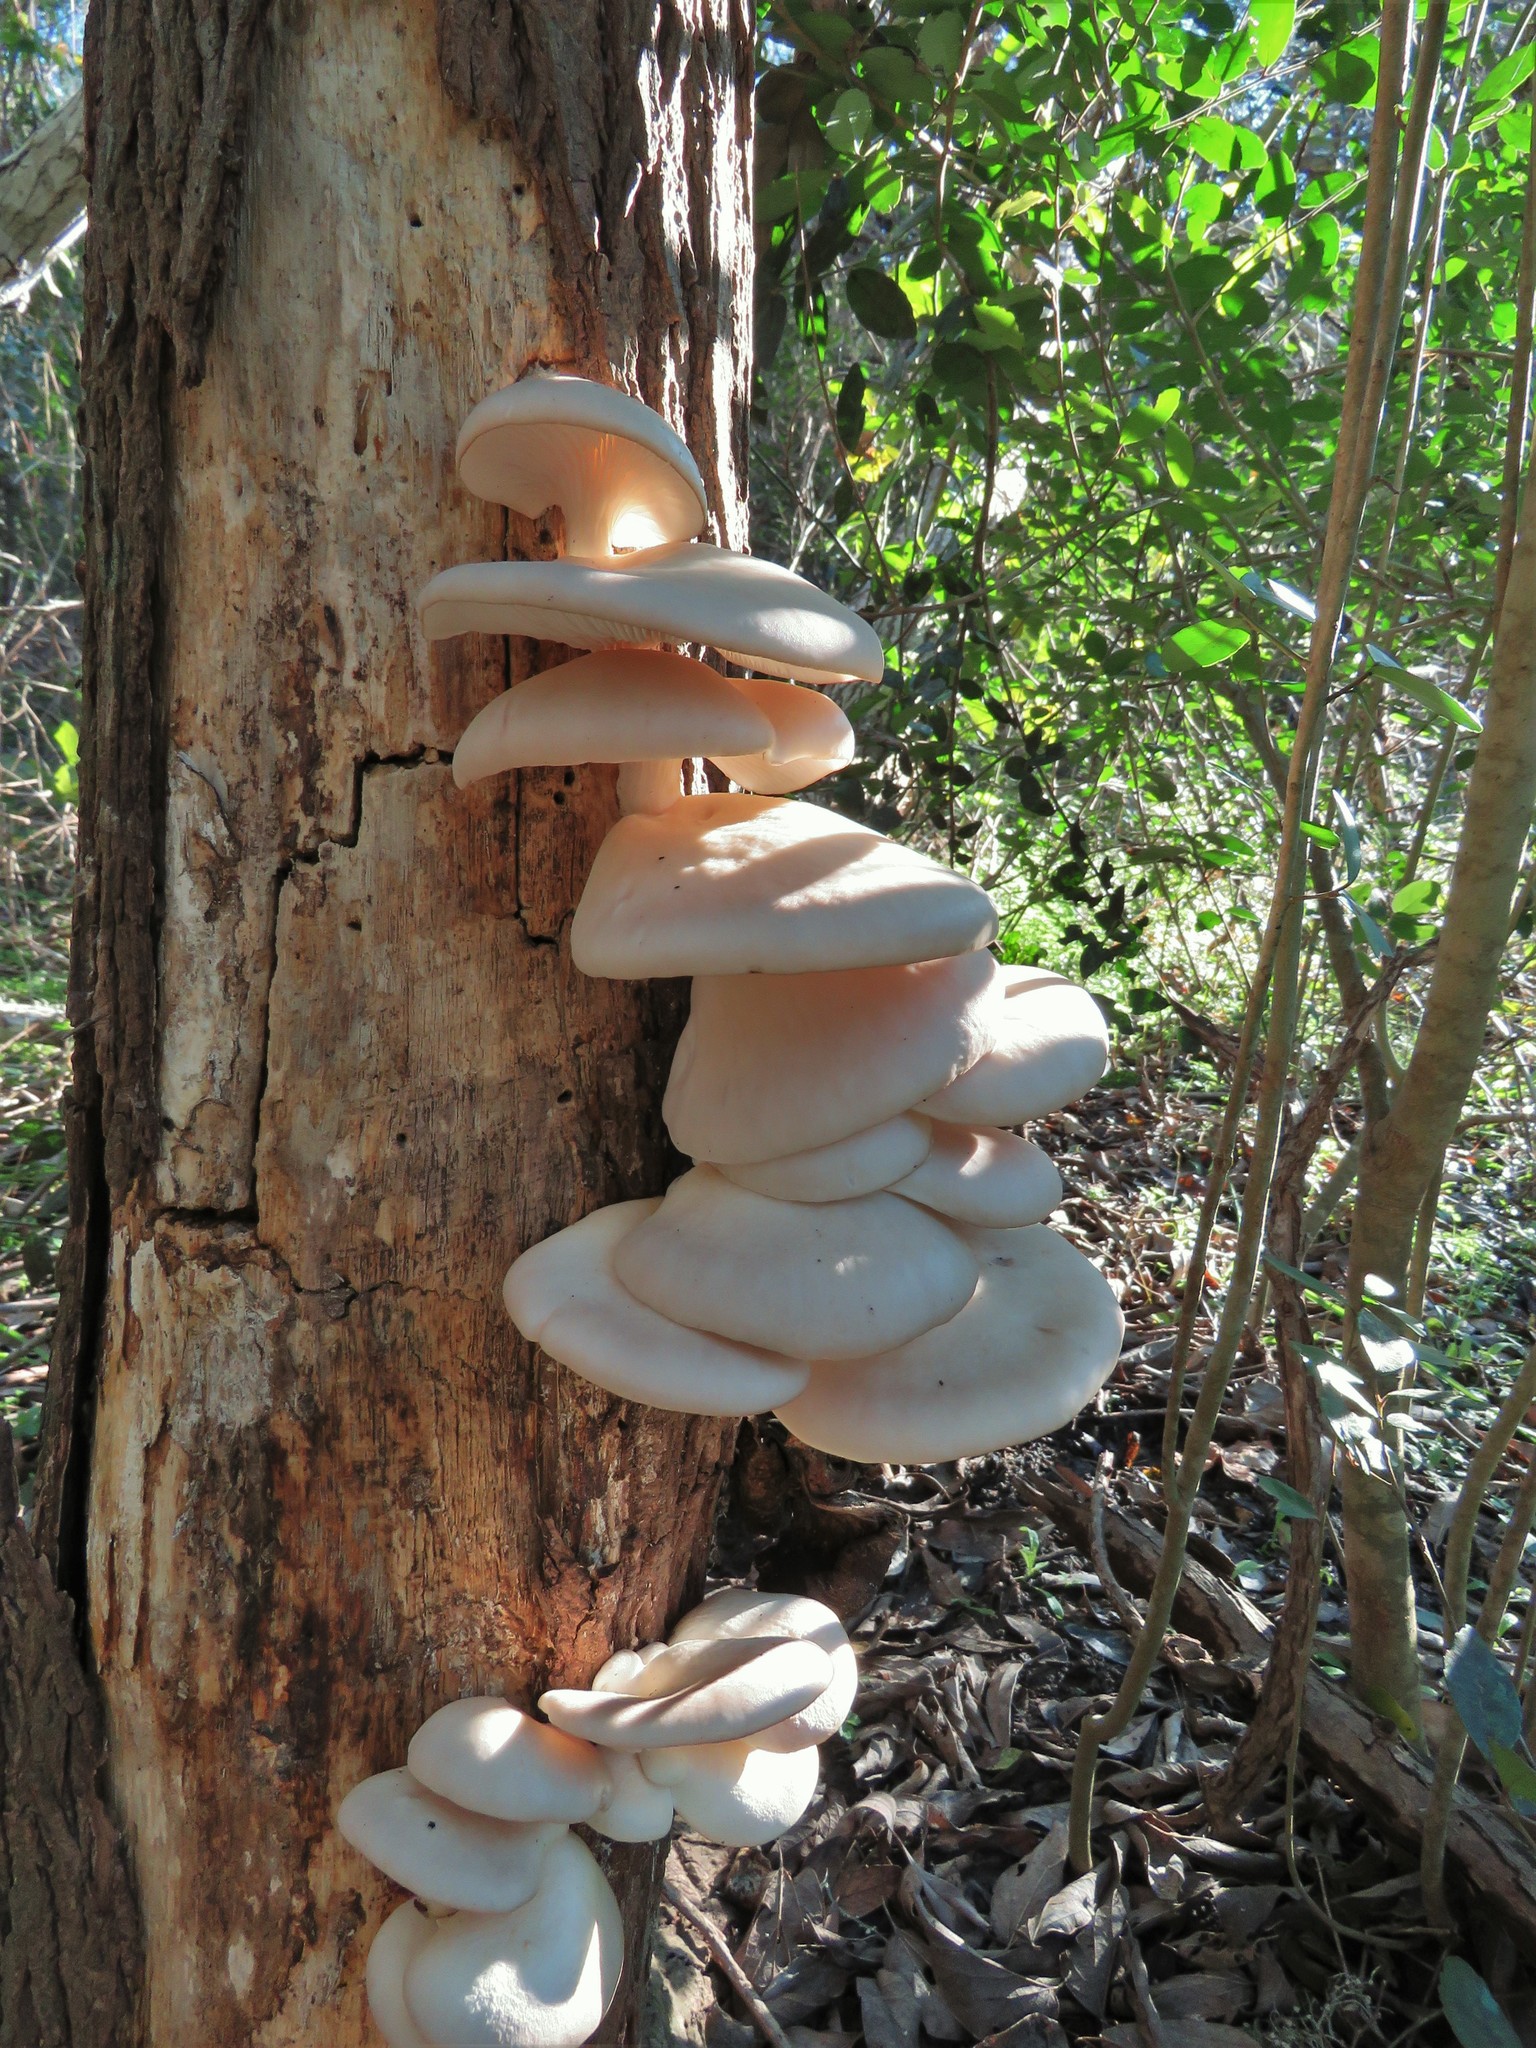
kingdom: Fungi
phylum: Basidiomycota
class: Agaricomycetes
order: Agaricales
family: Pleurotaceae
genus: Pleurotus
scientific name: Pleurotus ostreatus
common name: Oyster mushroom
